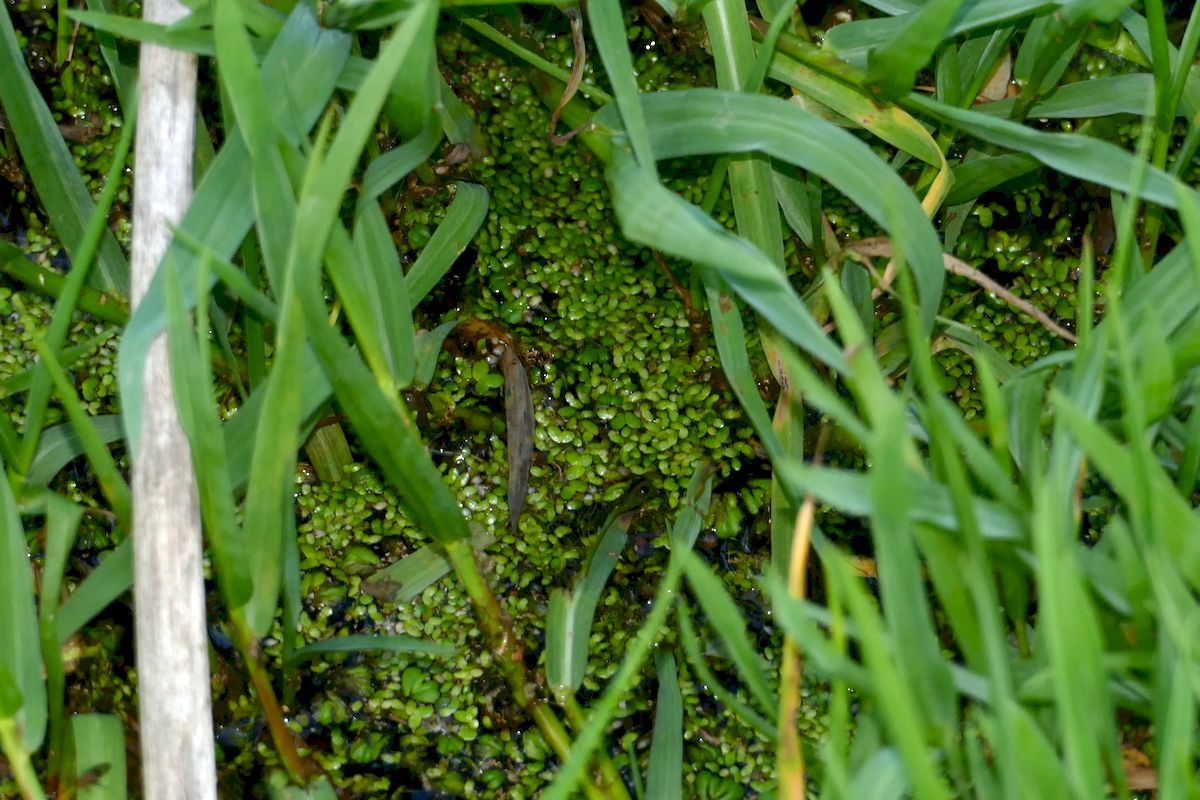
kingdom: Plantae
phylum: Tracheophyta
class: Liliopsida
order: Alismatales
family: Araceae
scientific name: Araceae
